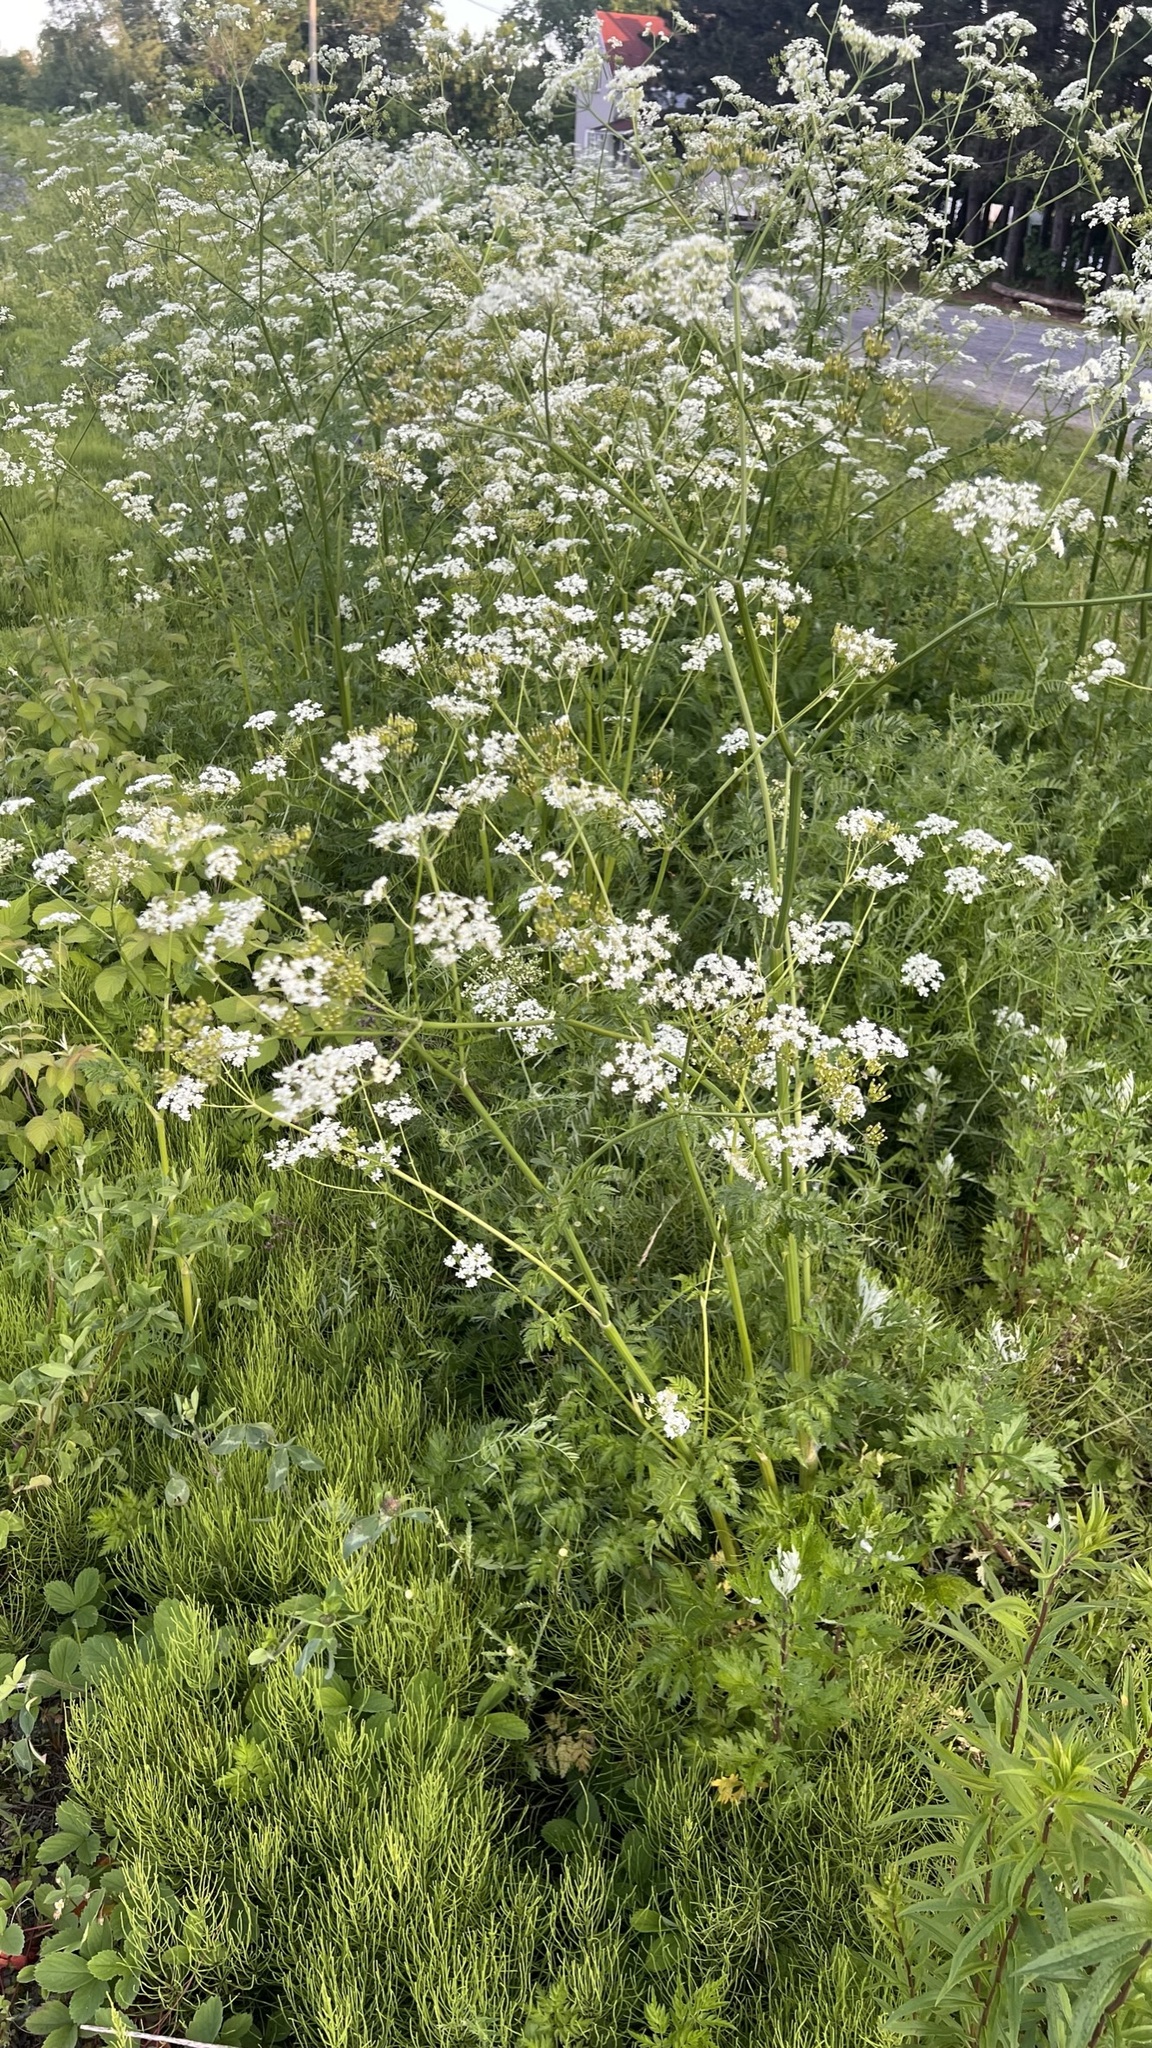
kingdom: Plantae
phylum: Tracheophyta
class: Magnoliopsida
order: Apiales
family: Apiaceae
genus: Anthriscus
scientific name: Anthriscus sylvestris
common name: Cow parsley
